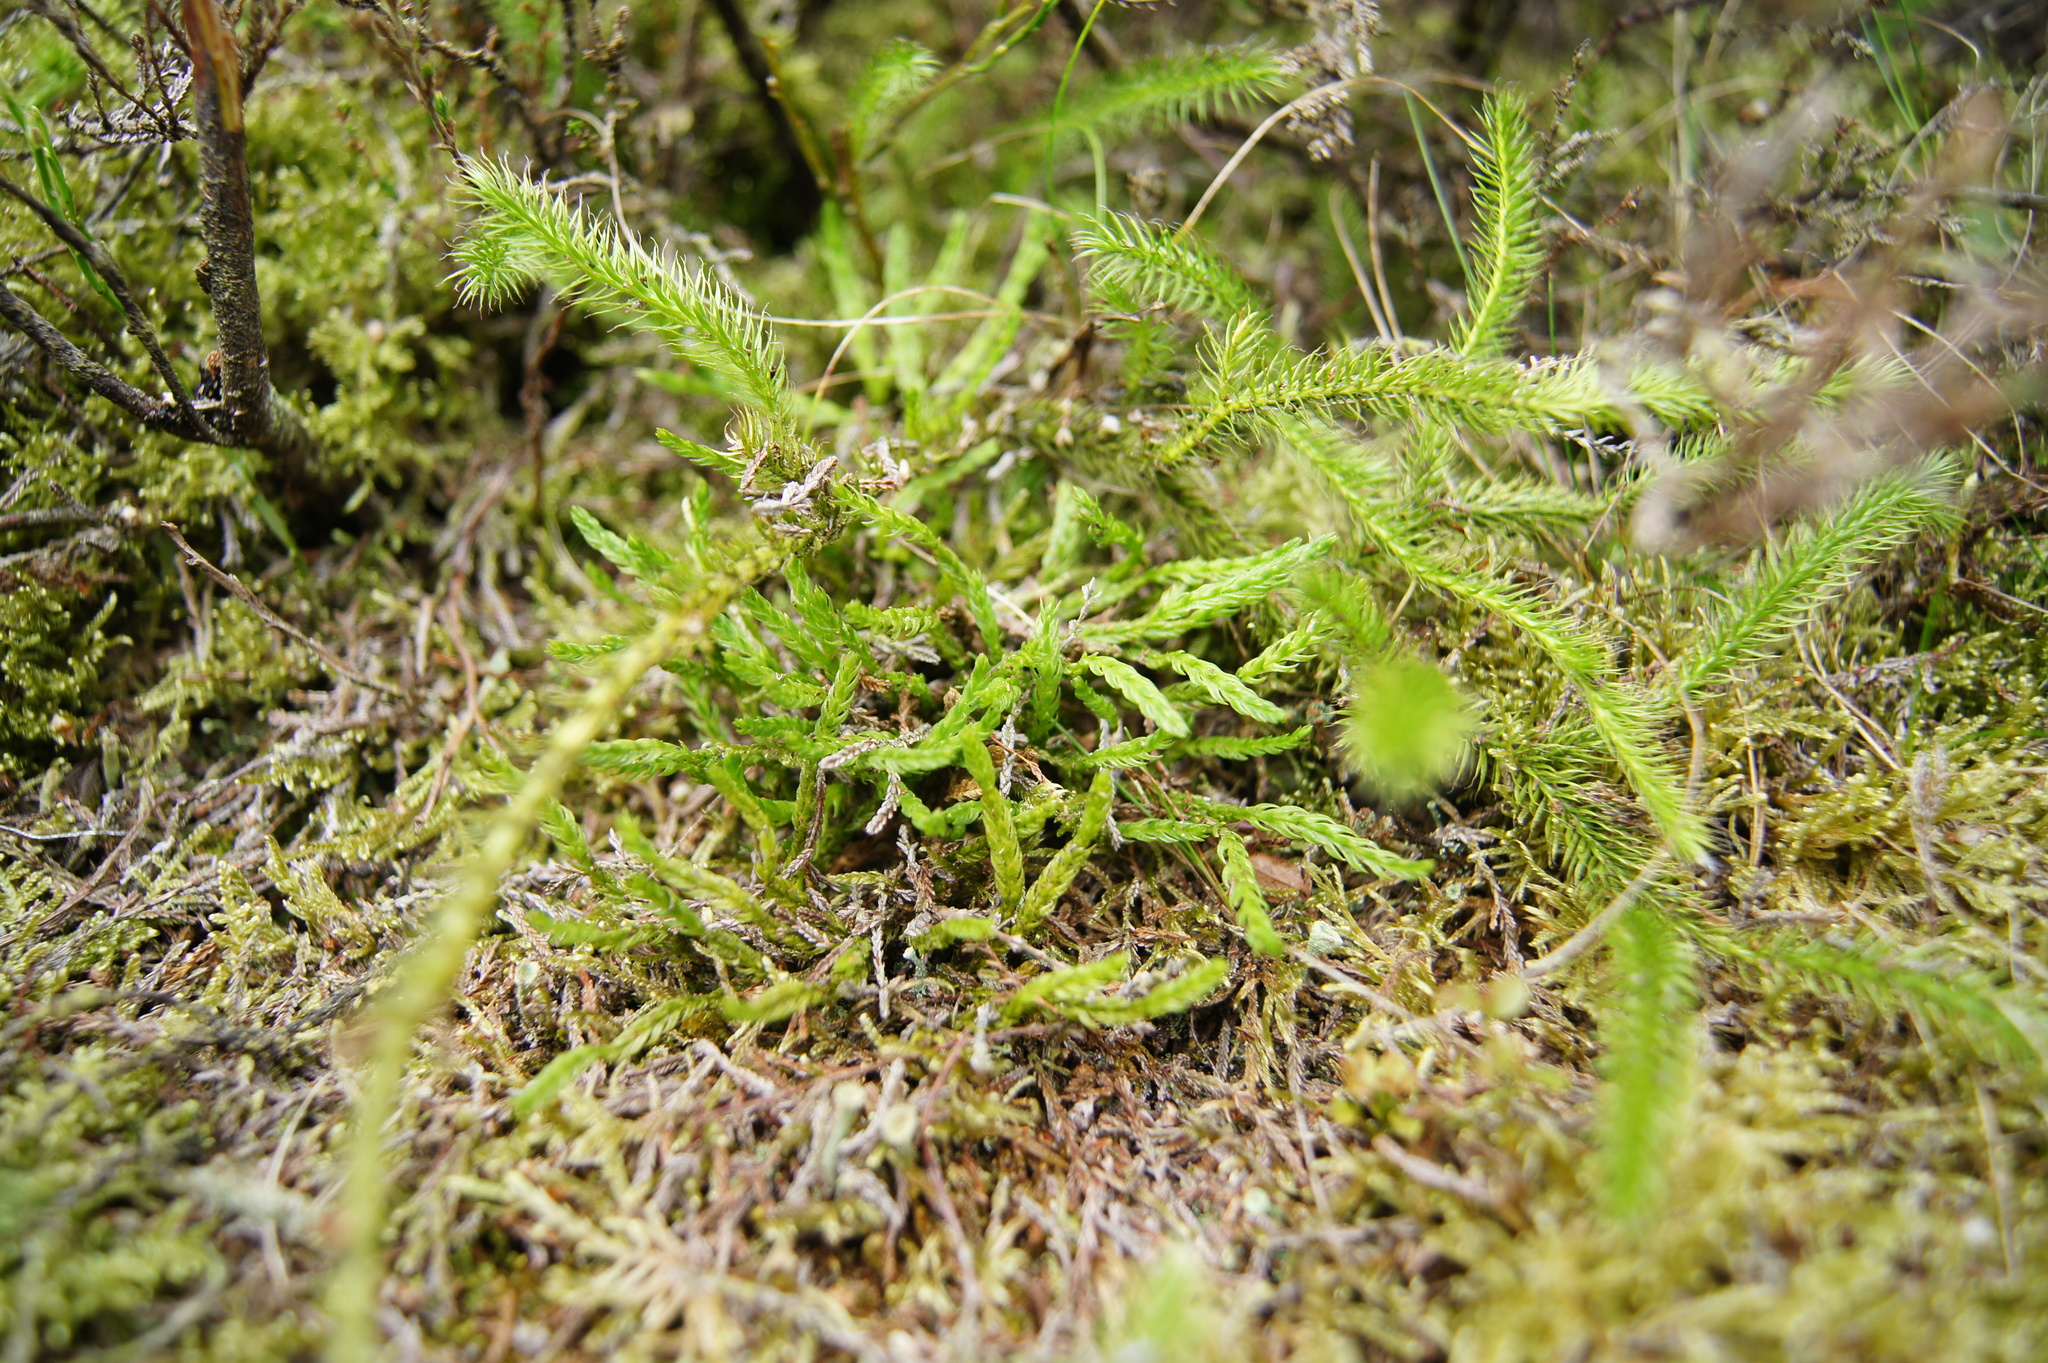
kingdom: Plantae
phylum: Tracheophyta
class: Lycopodiopsida
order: Lycopodiales
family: Lycopodiaceae
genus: Diphasiastrum
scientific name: Diphasiastrum alpinum
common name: Alpine clubmoss
